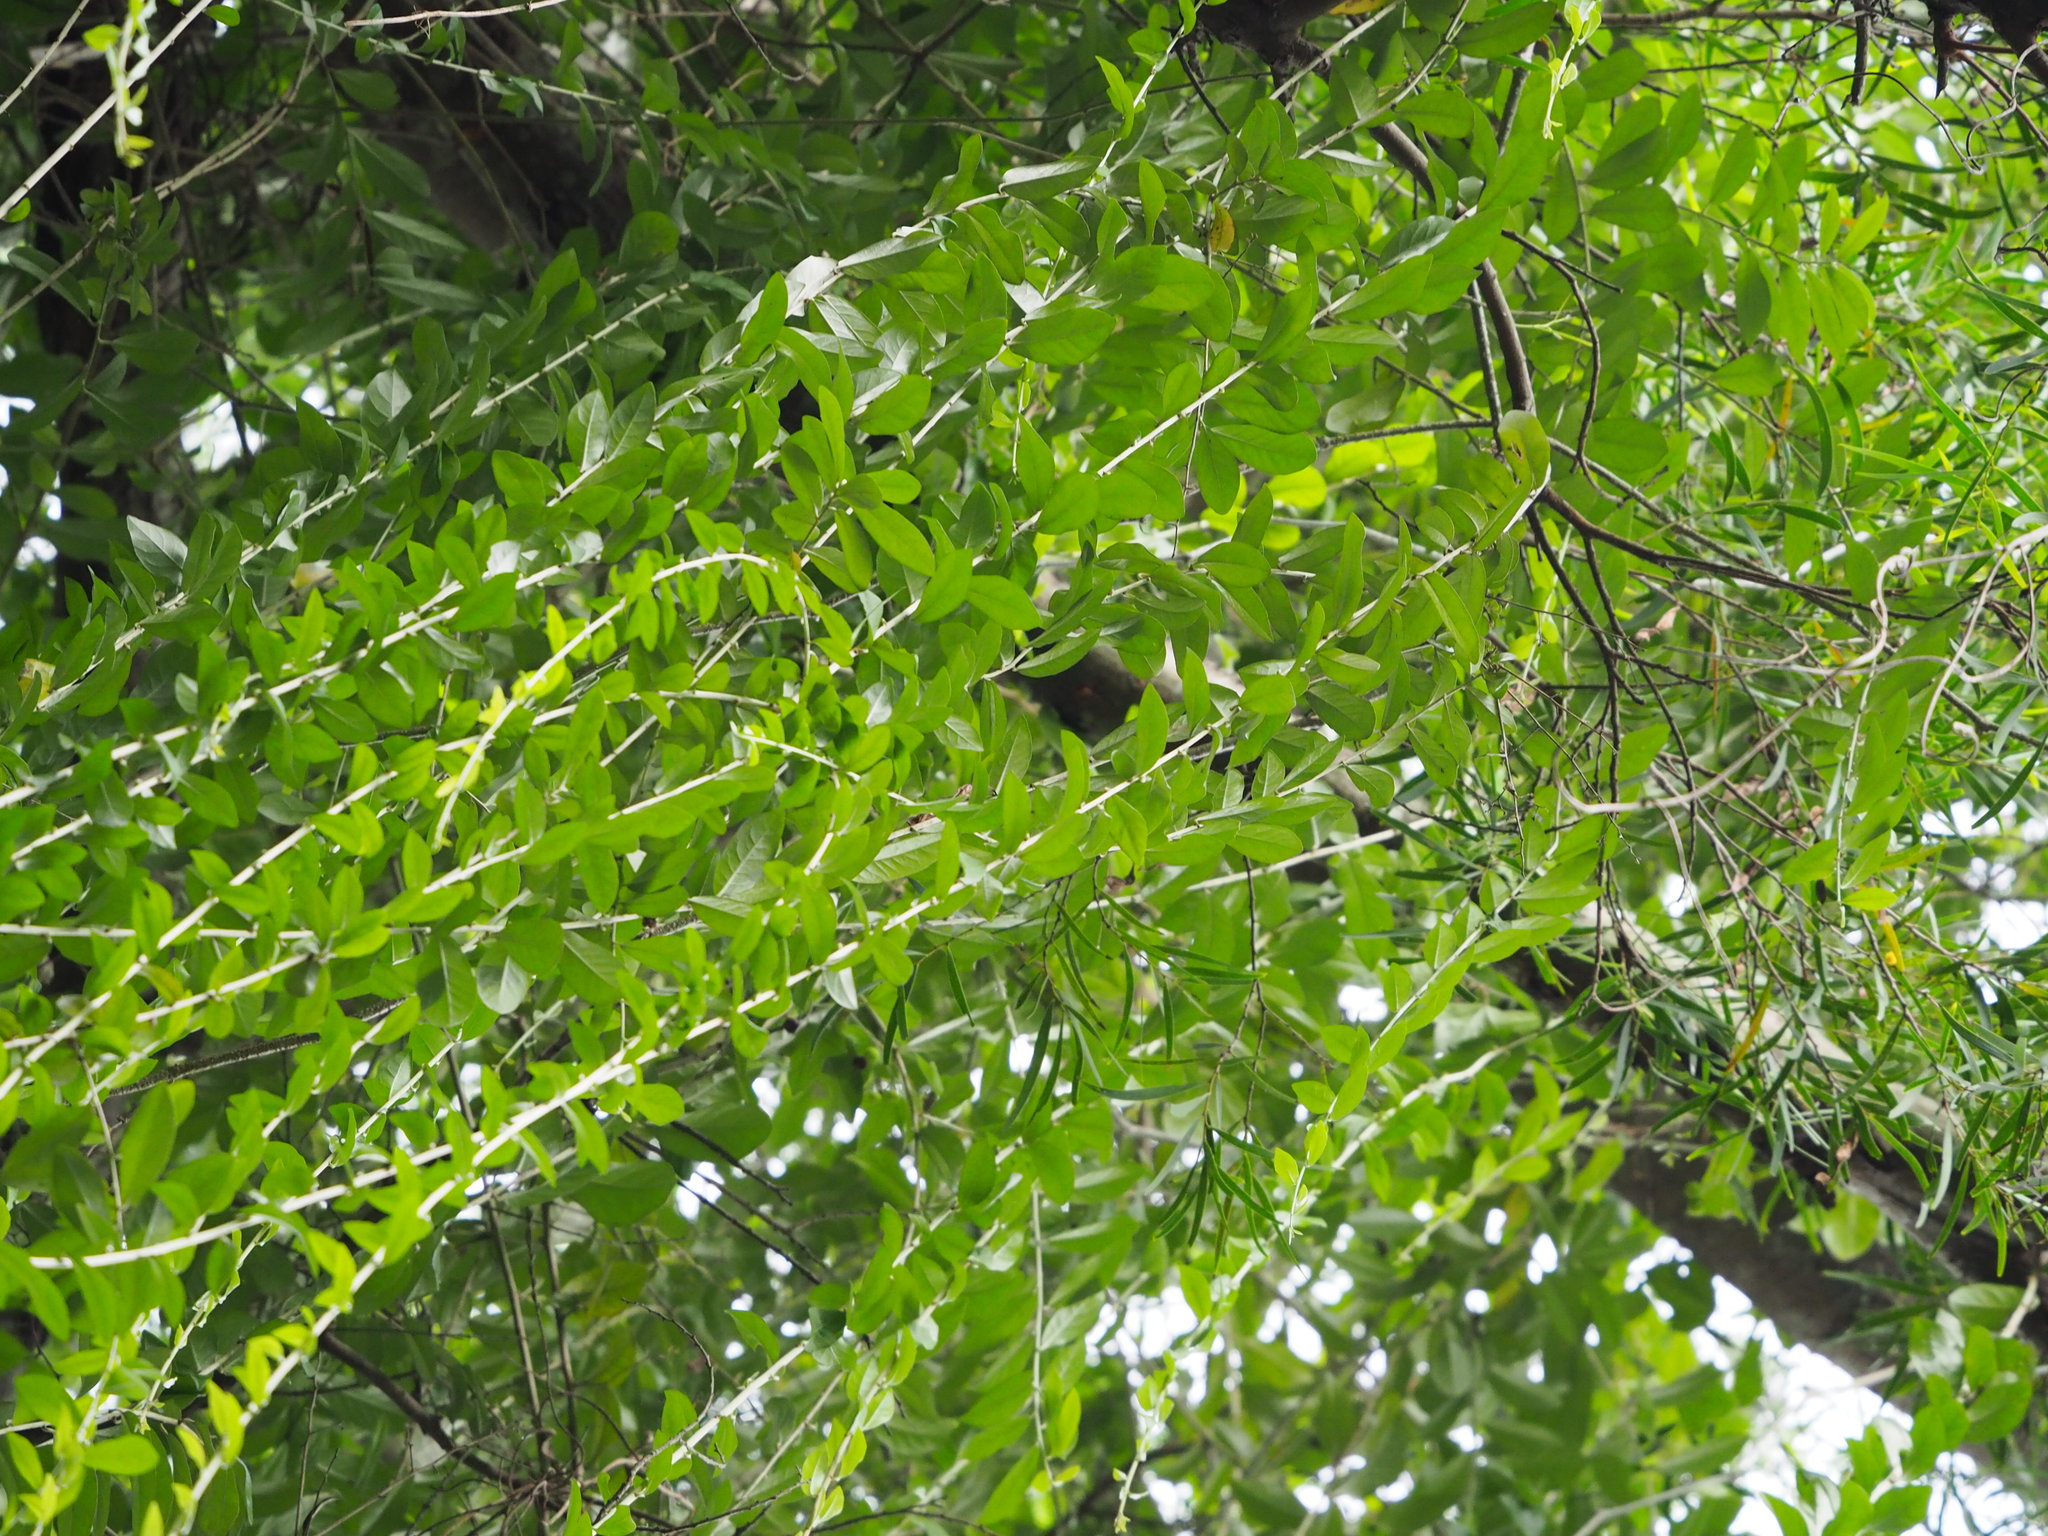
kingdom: Plantae
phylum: Tracheophyta
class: Magnoliopsida
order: Asterales
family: Asteraceae
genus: Tarlmounia
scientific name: Tarlmounia elliptica
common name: Kheua sa lot
